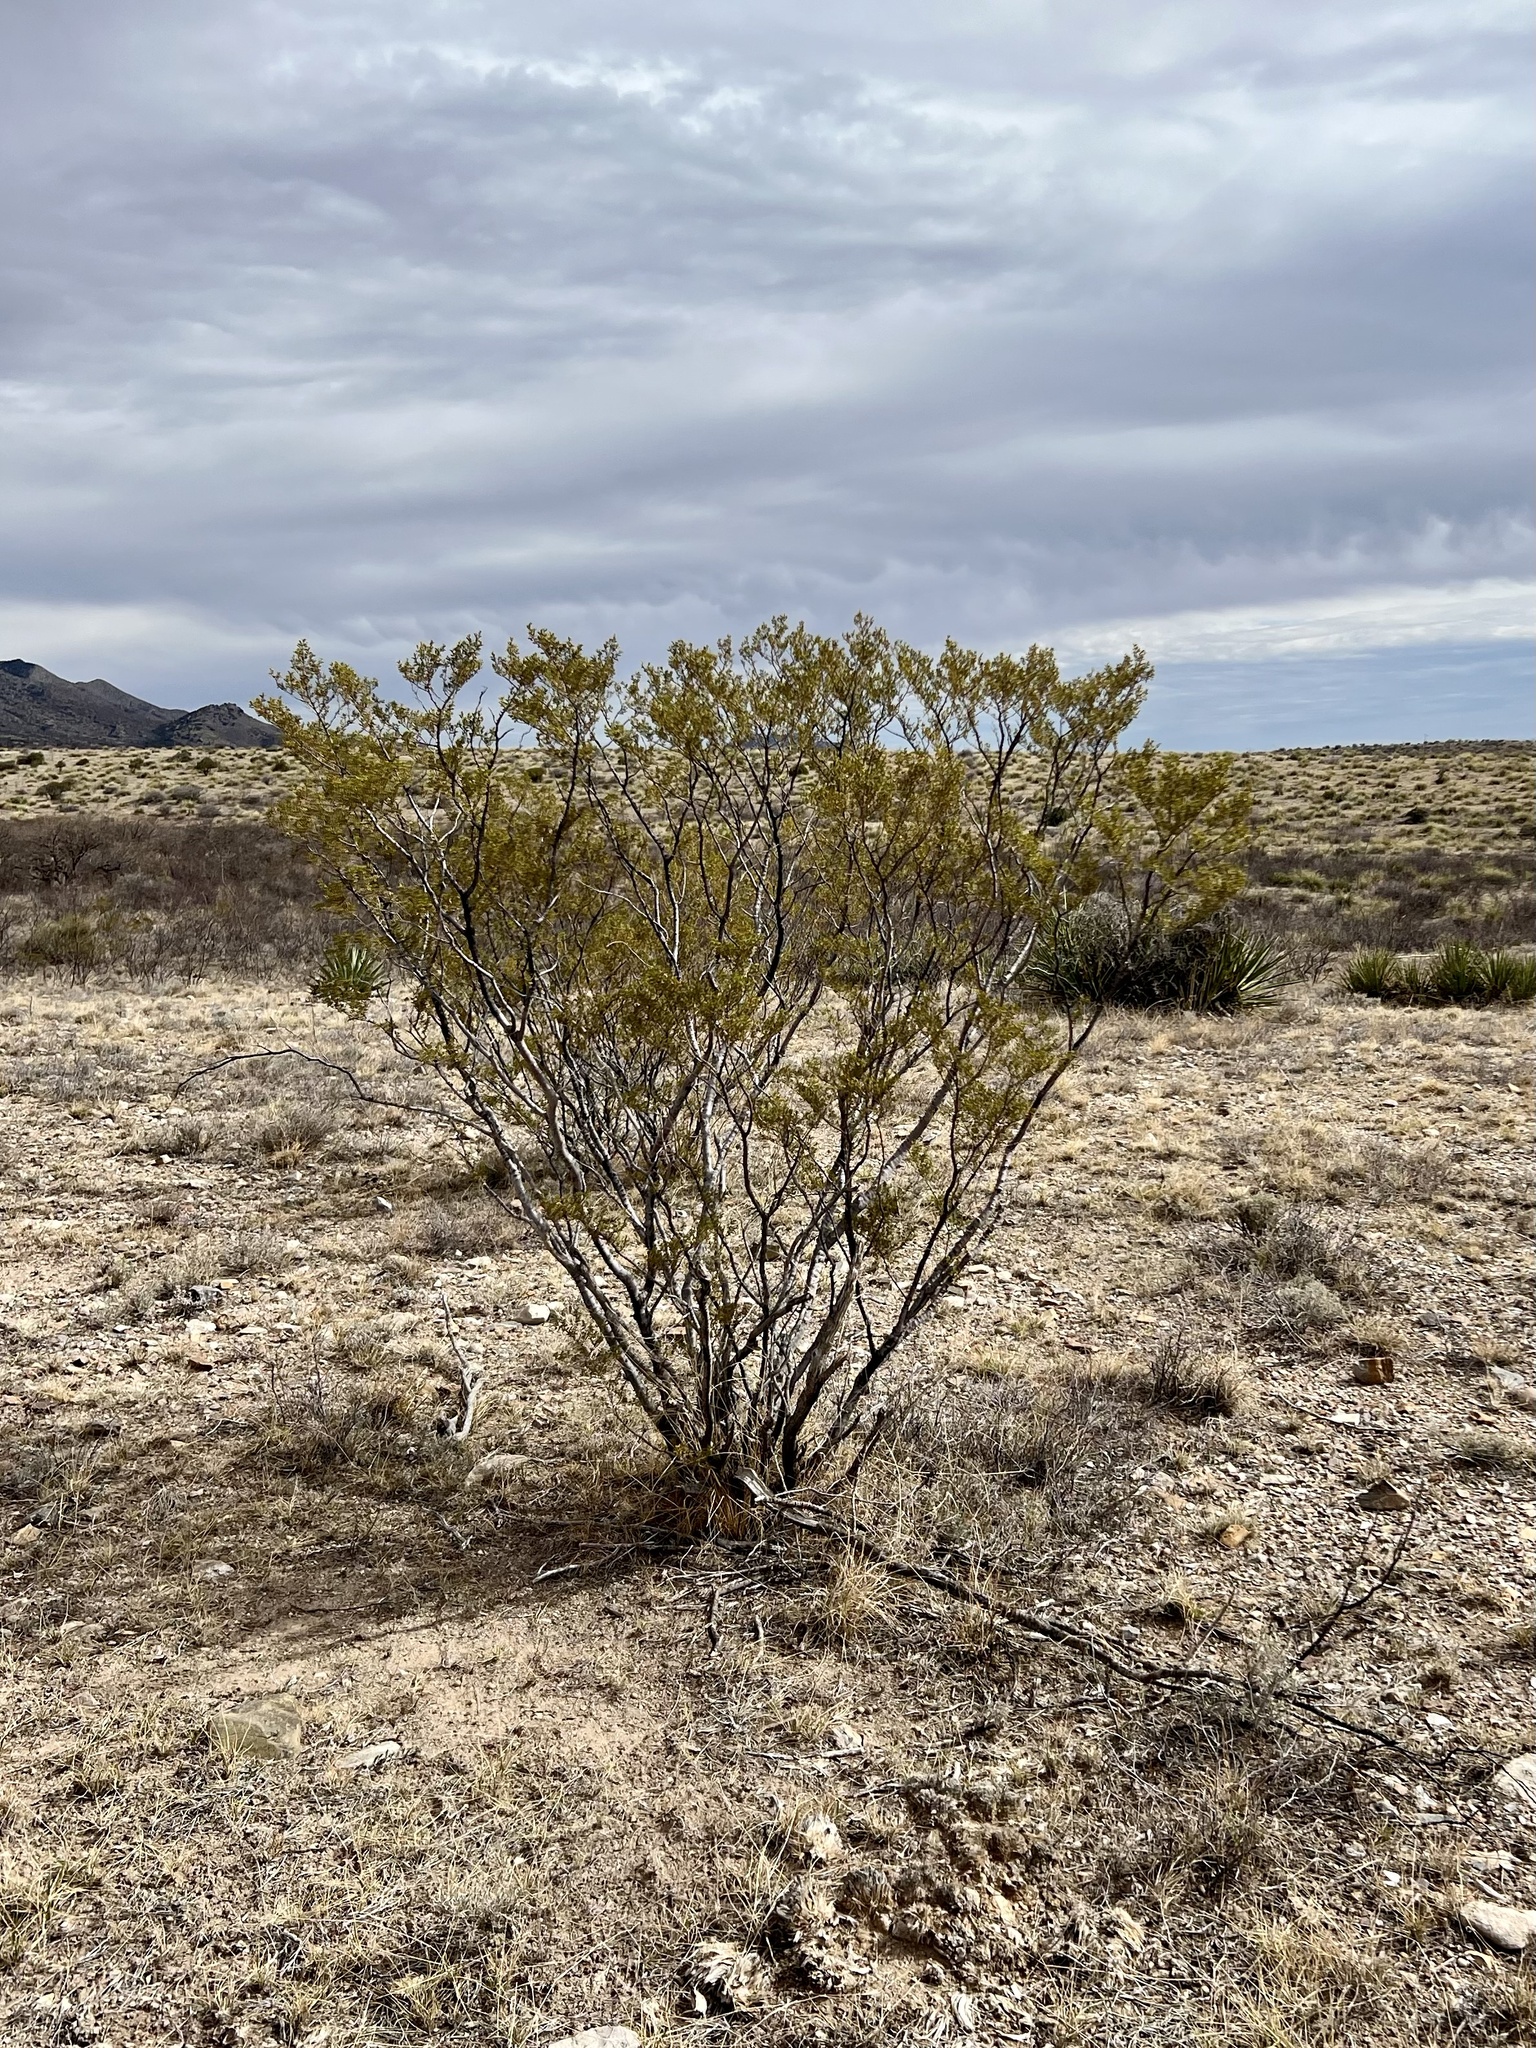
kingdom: Plantae
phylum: Tracheophyta
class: Magnoliopsida
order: Zygophyllales
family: Zygophyllaceae
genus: Larrea
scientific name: Larrea tridentata
